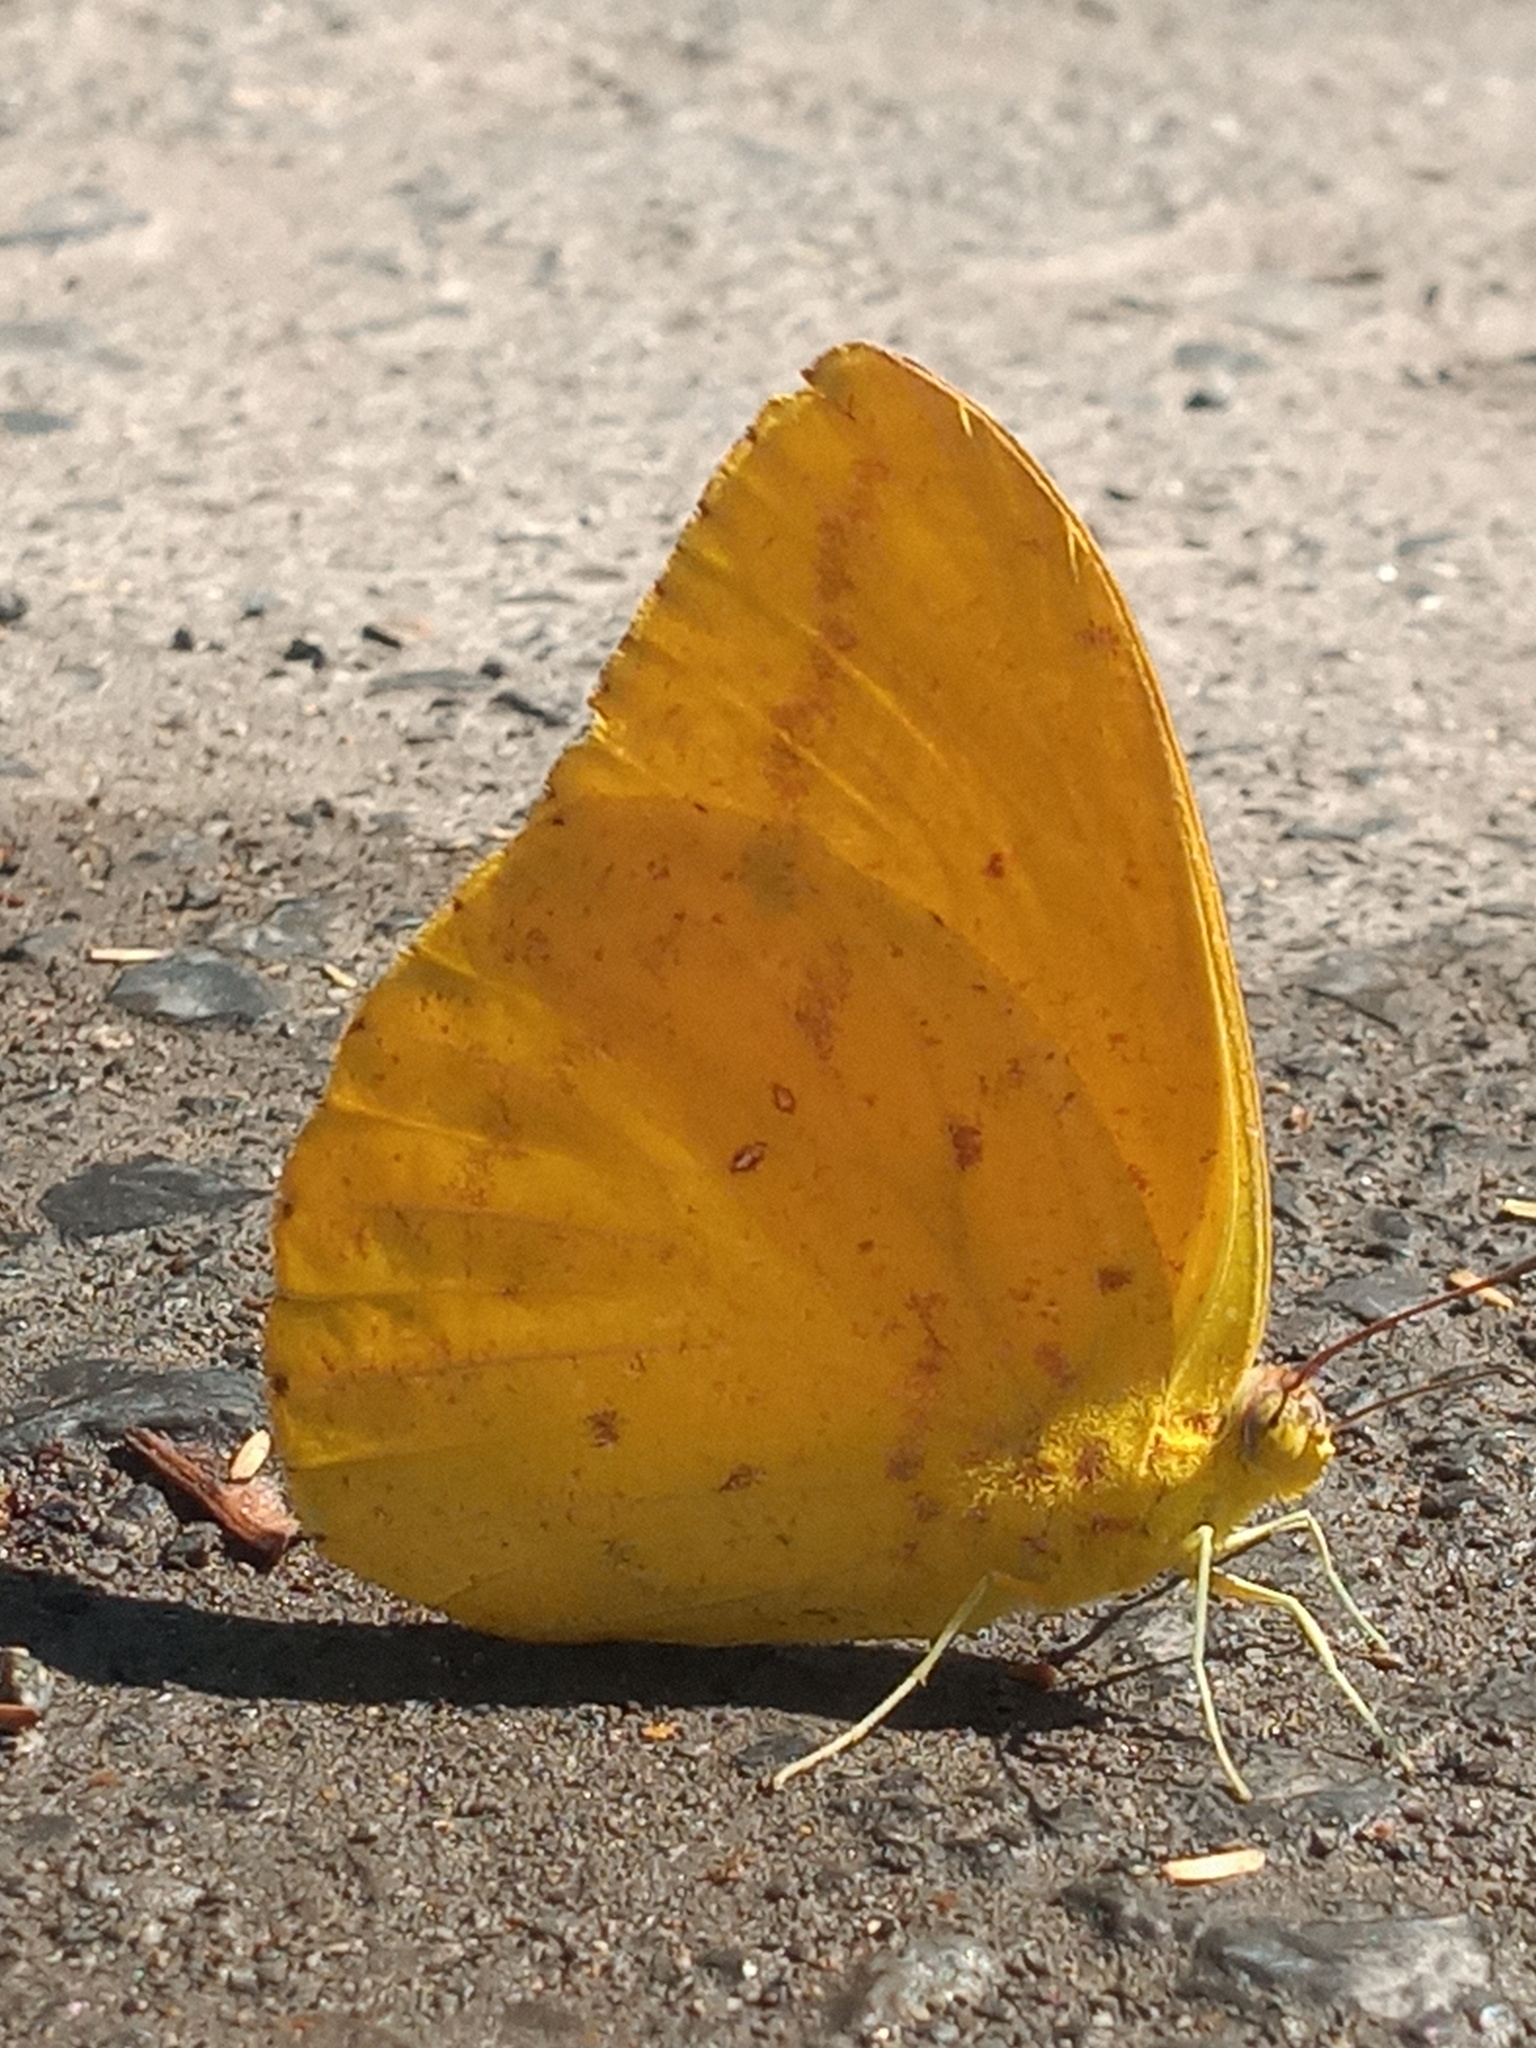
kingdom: Animalia
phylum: Arthropoda
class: Insecta
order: Lepidoptera
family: Pieridae
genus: Phoebis
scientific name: Phoebis agarithe
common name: Large orange sulphur
